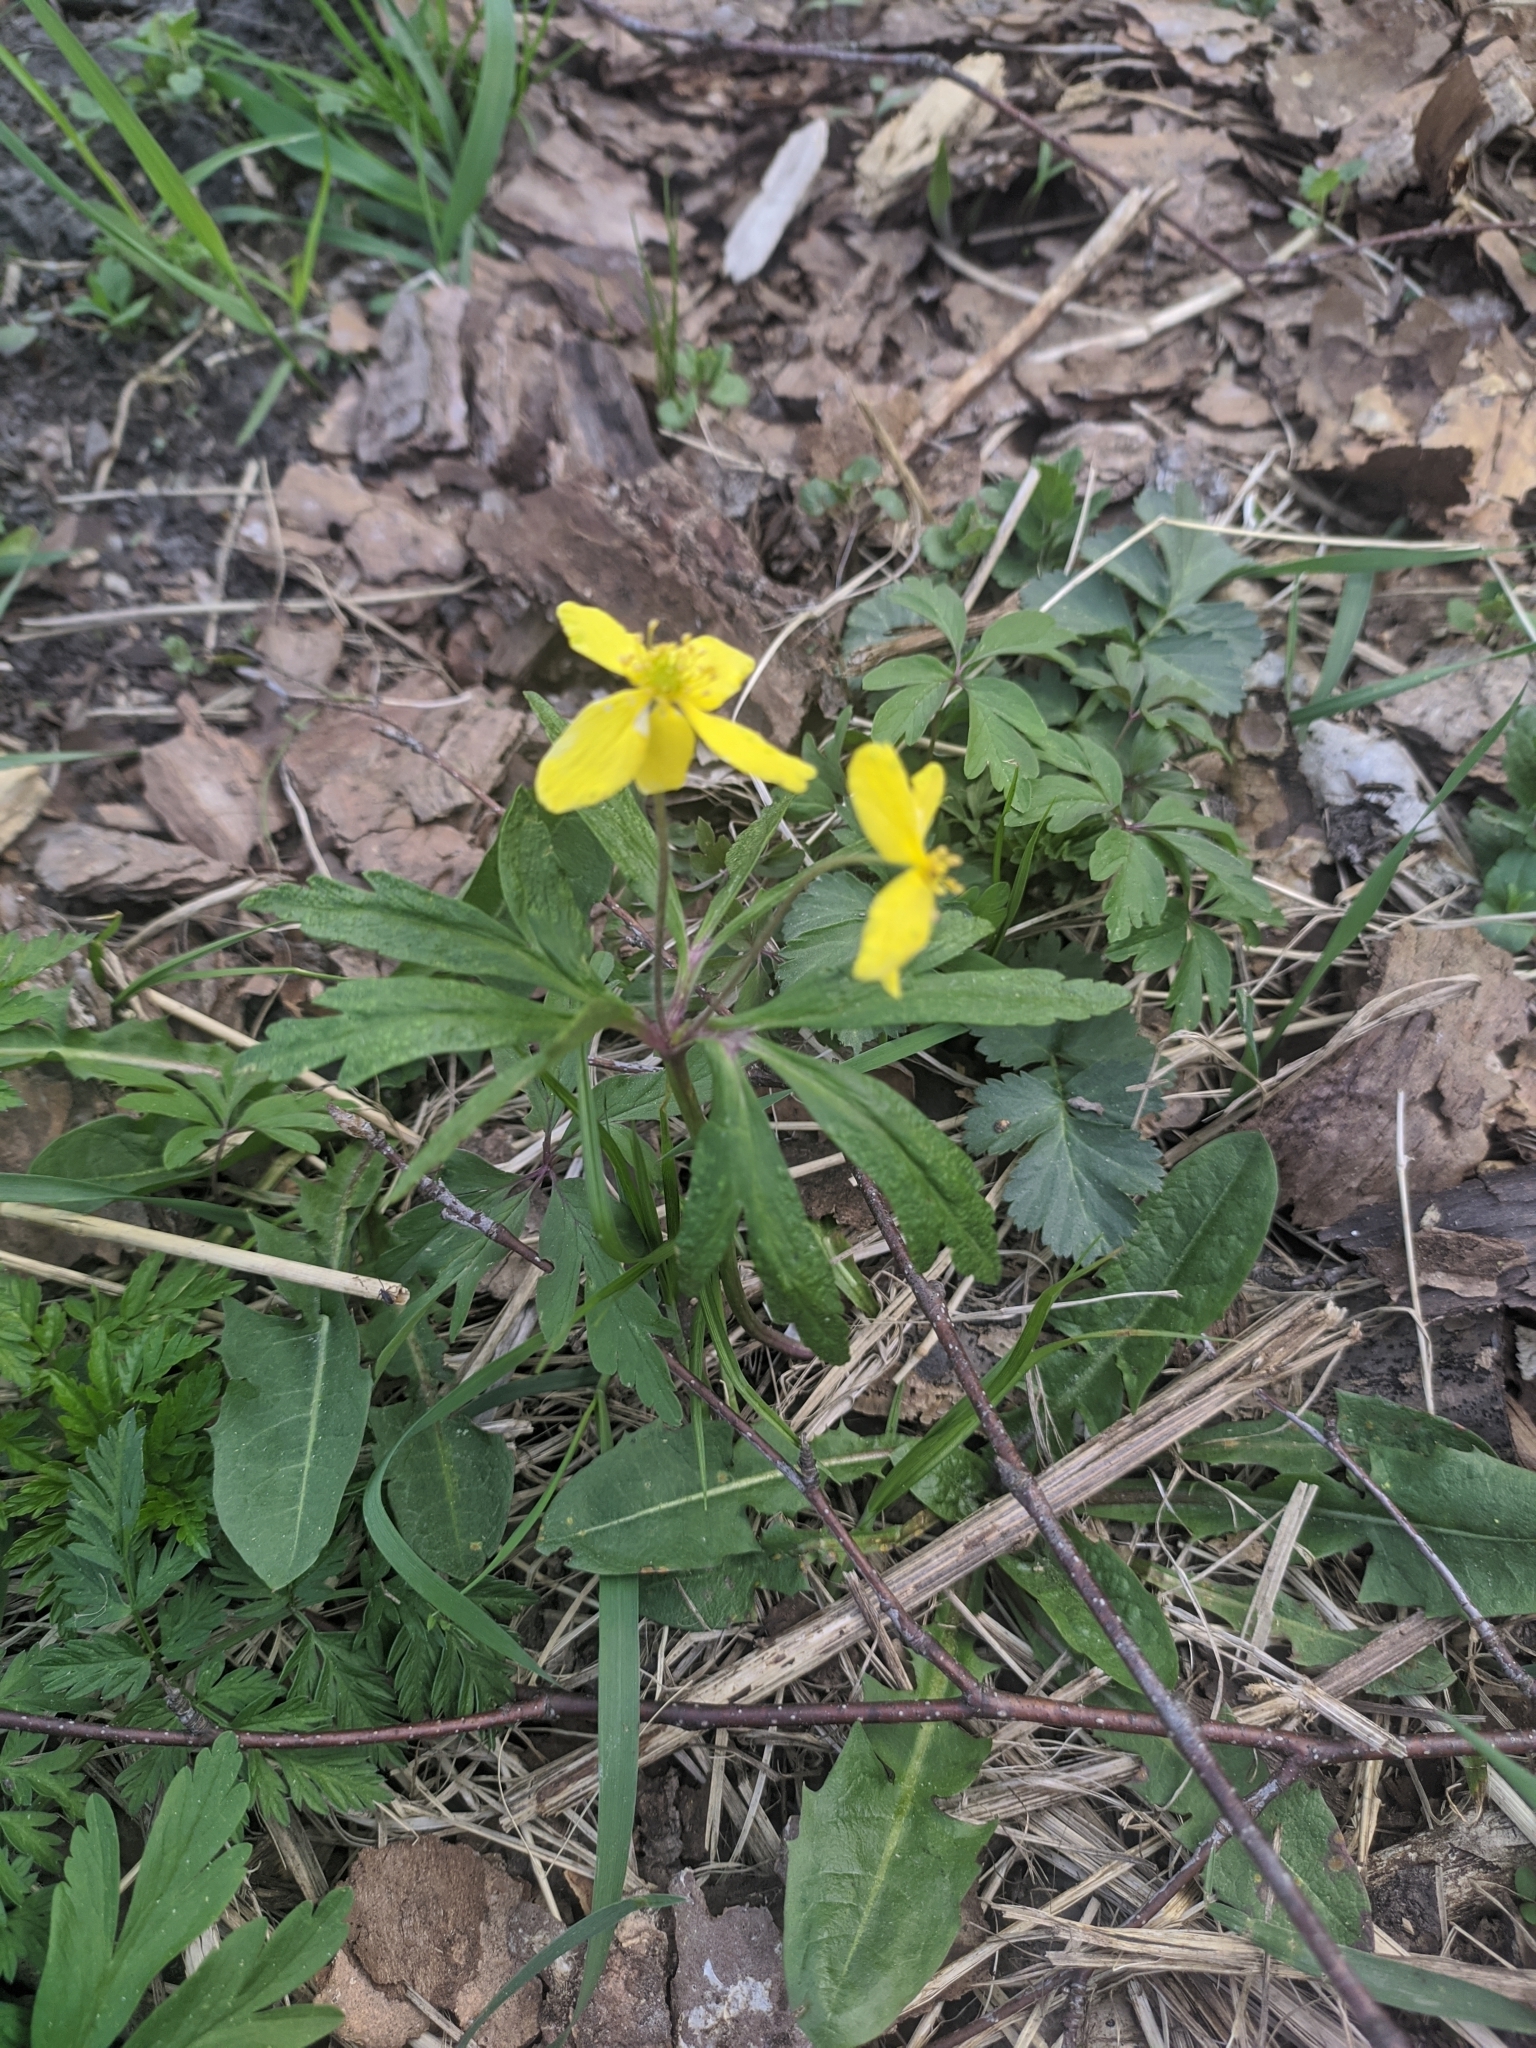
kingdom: Plantae
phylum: Tracheophyta
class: Magnoliopsida
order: Ranunculales
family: Ranunculaceae
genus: Anemone
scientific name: Anemone ranunculoides
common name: Yellow anemone
